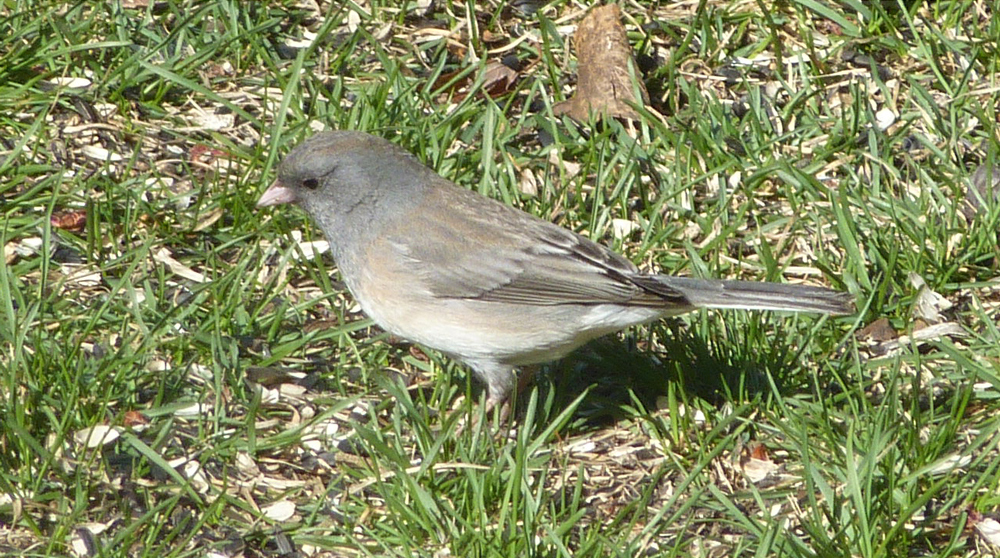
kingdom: Animalia
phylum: Chordata
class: Aves
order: Passeriformes
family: Passerellidae
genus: Junco
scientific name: Junco hyemalis
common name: Dark-eyed junco
